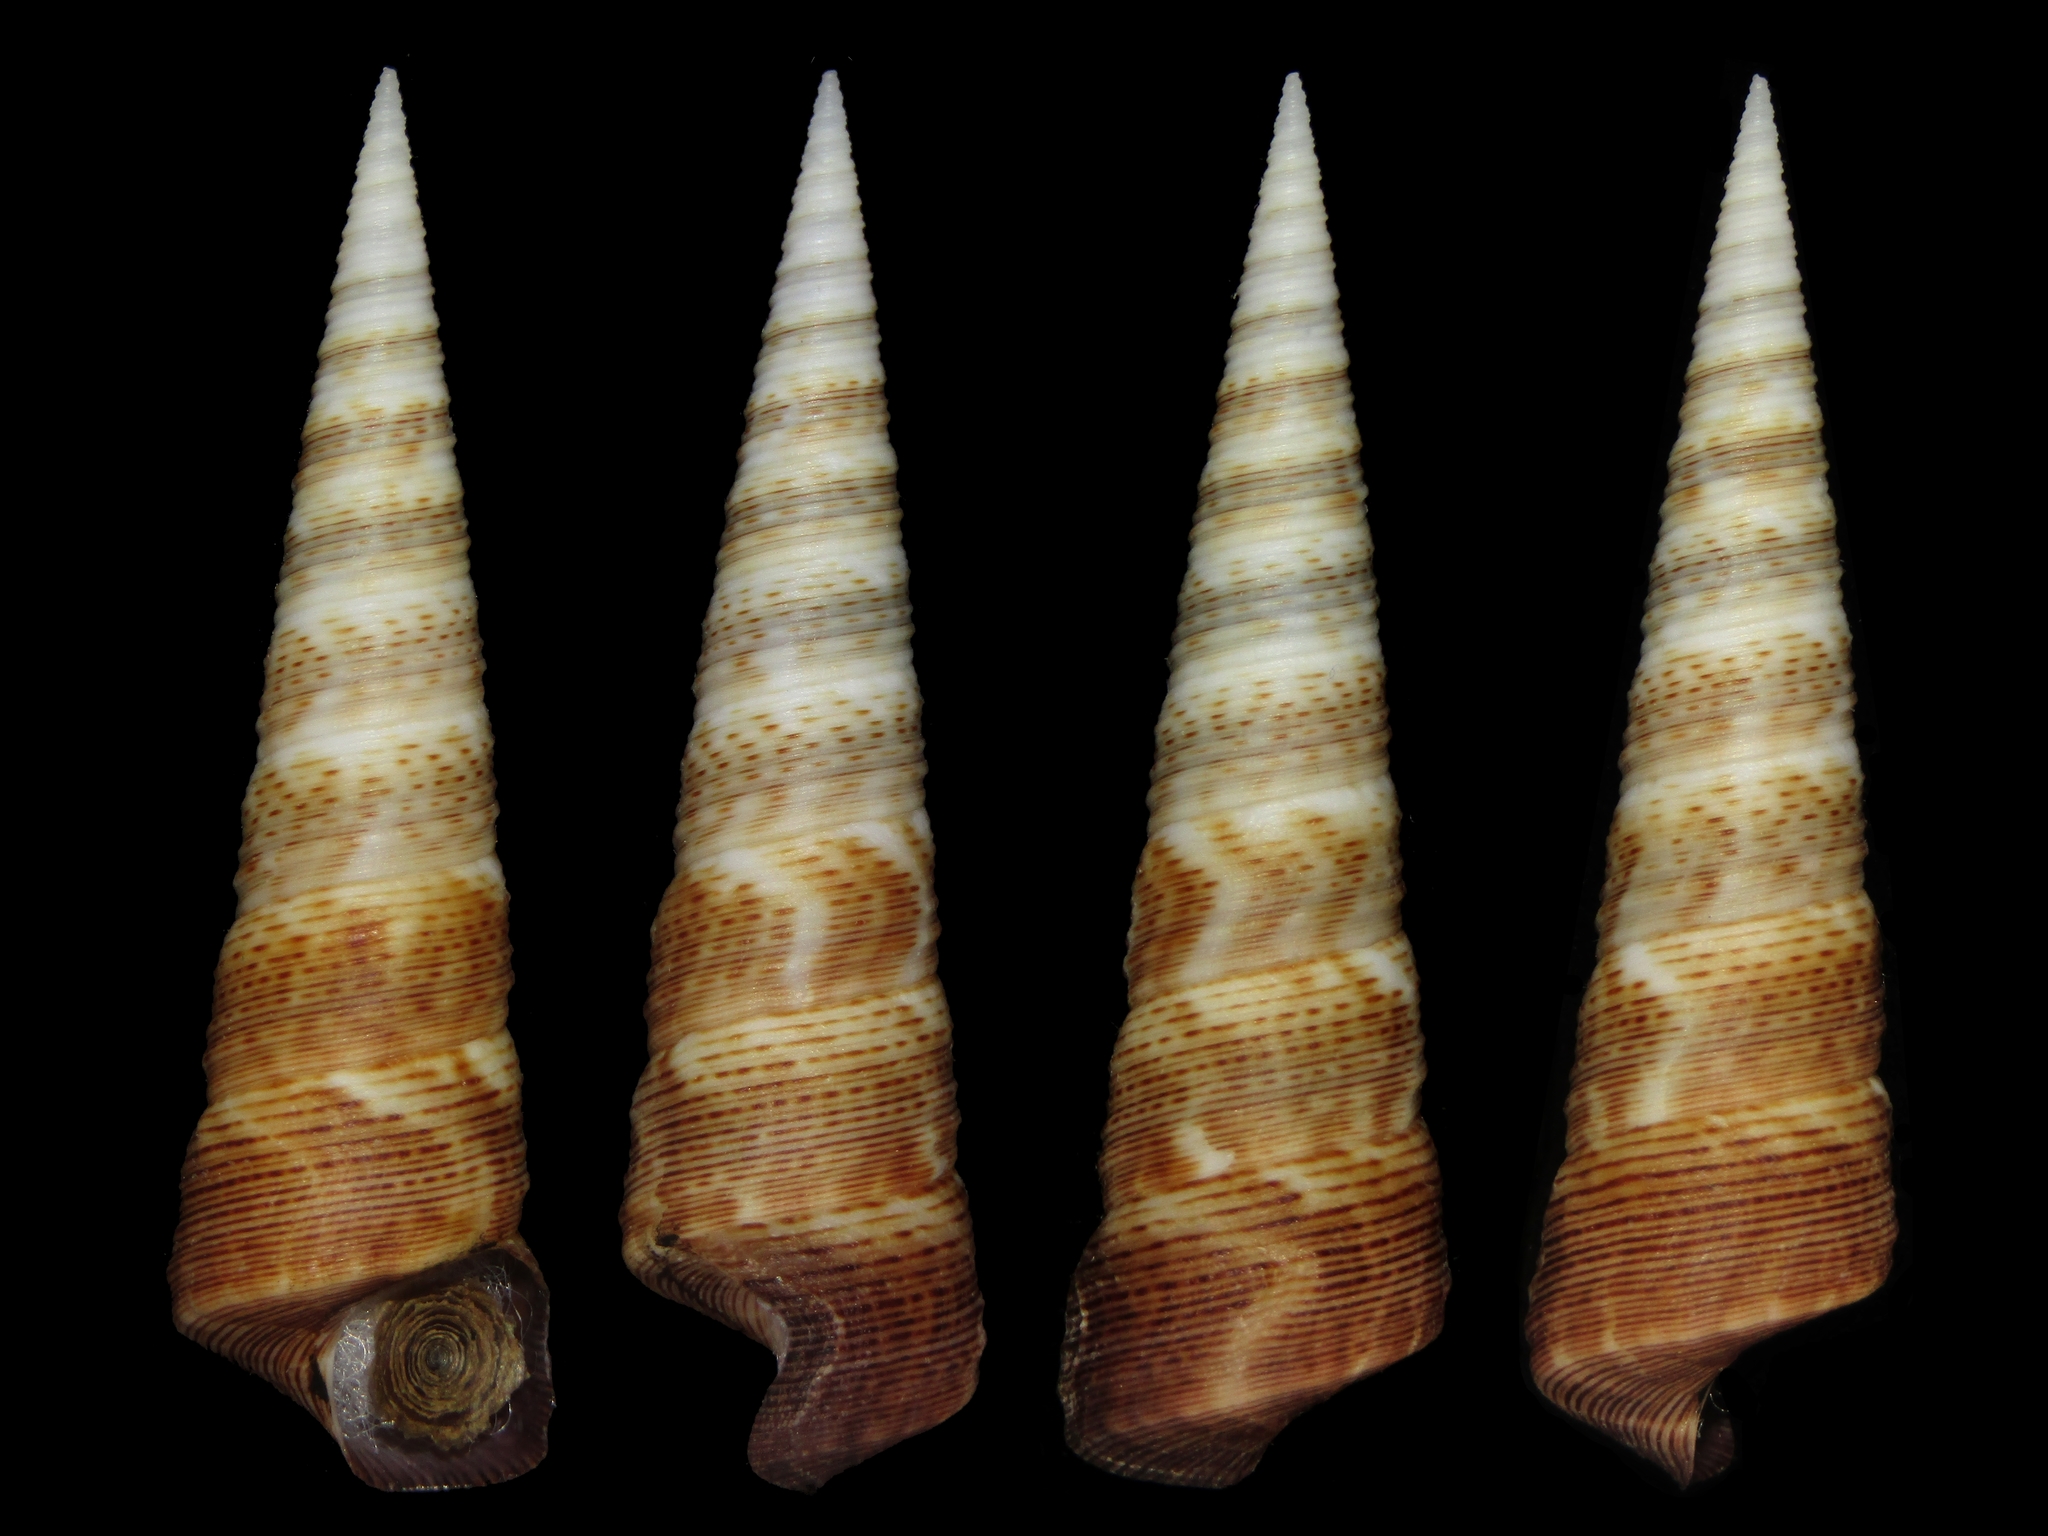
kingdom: Animalia
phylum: Mollusca
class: Gastropoda
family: Turritellidae
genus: Maoricolpus
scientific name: Maoricolpus roseus
